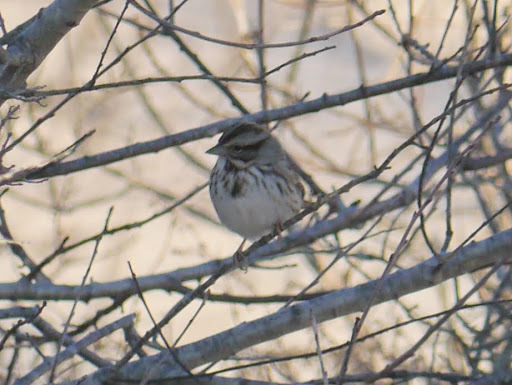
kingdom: Animalia
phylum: Chordata
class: Aves
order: Passeriformes
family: Passerellidae
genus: Melospiza
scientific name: Melospiza melodia
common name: Song sparrow
